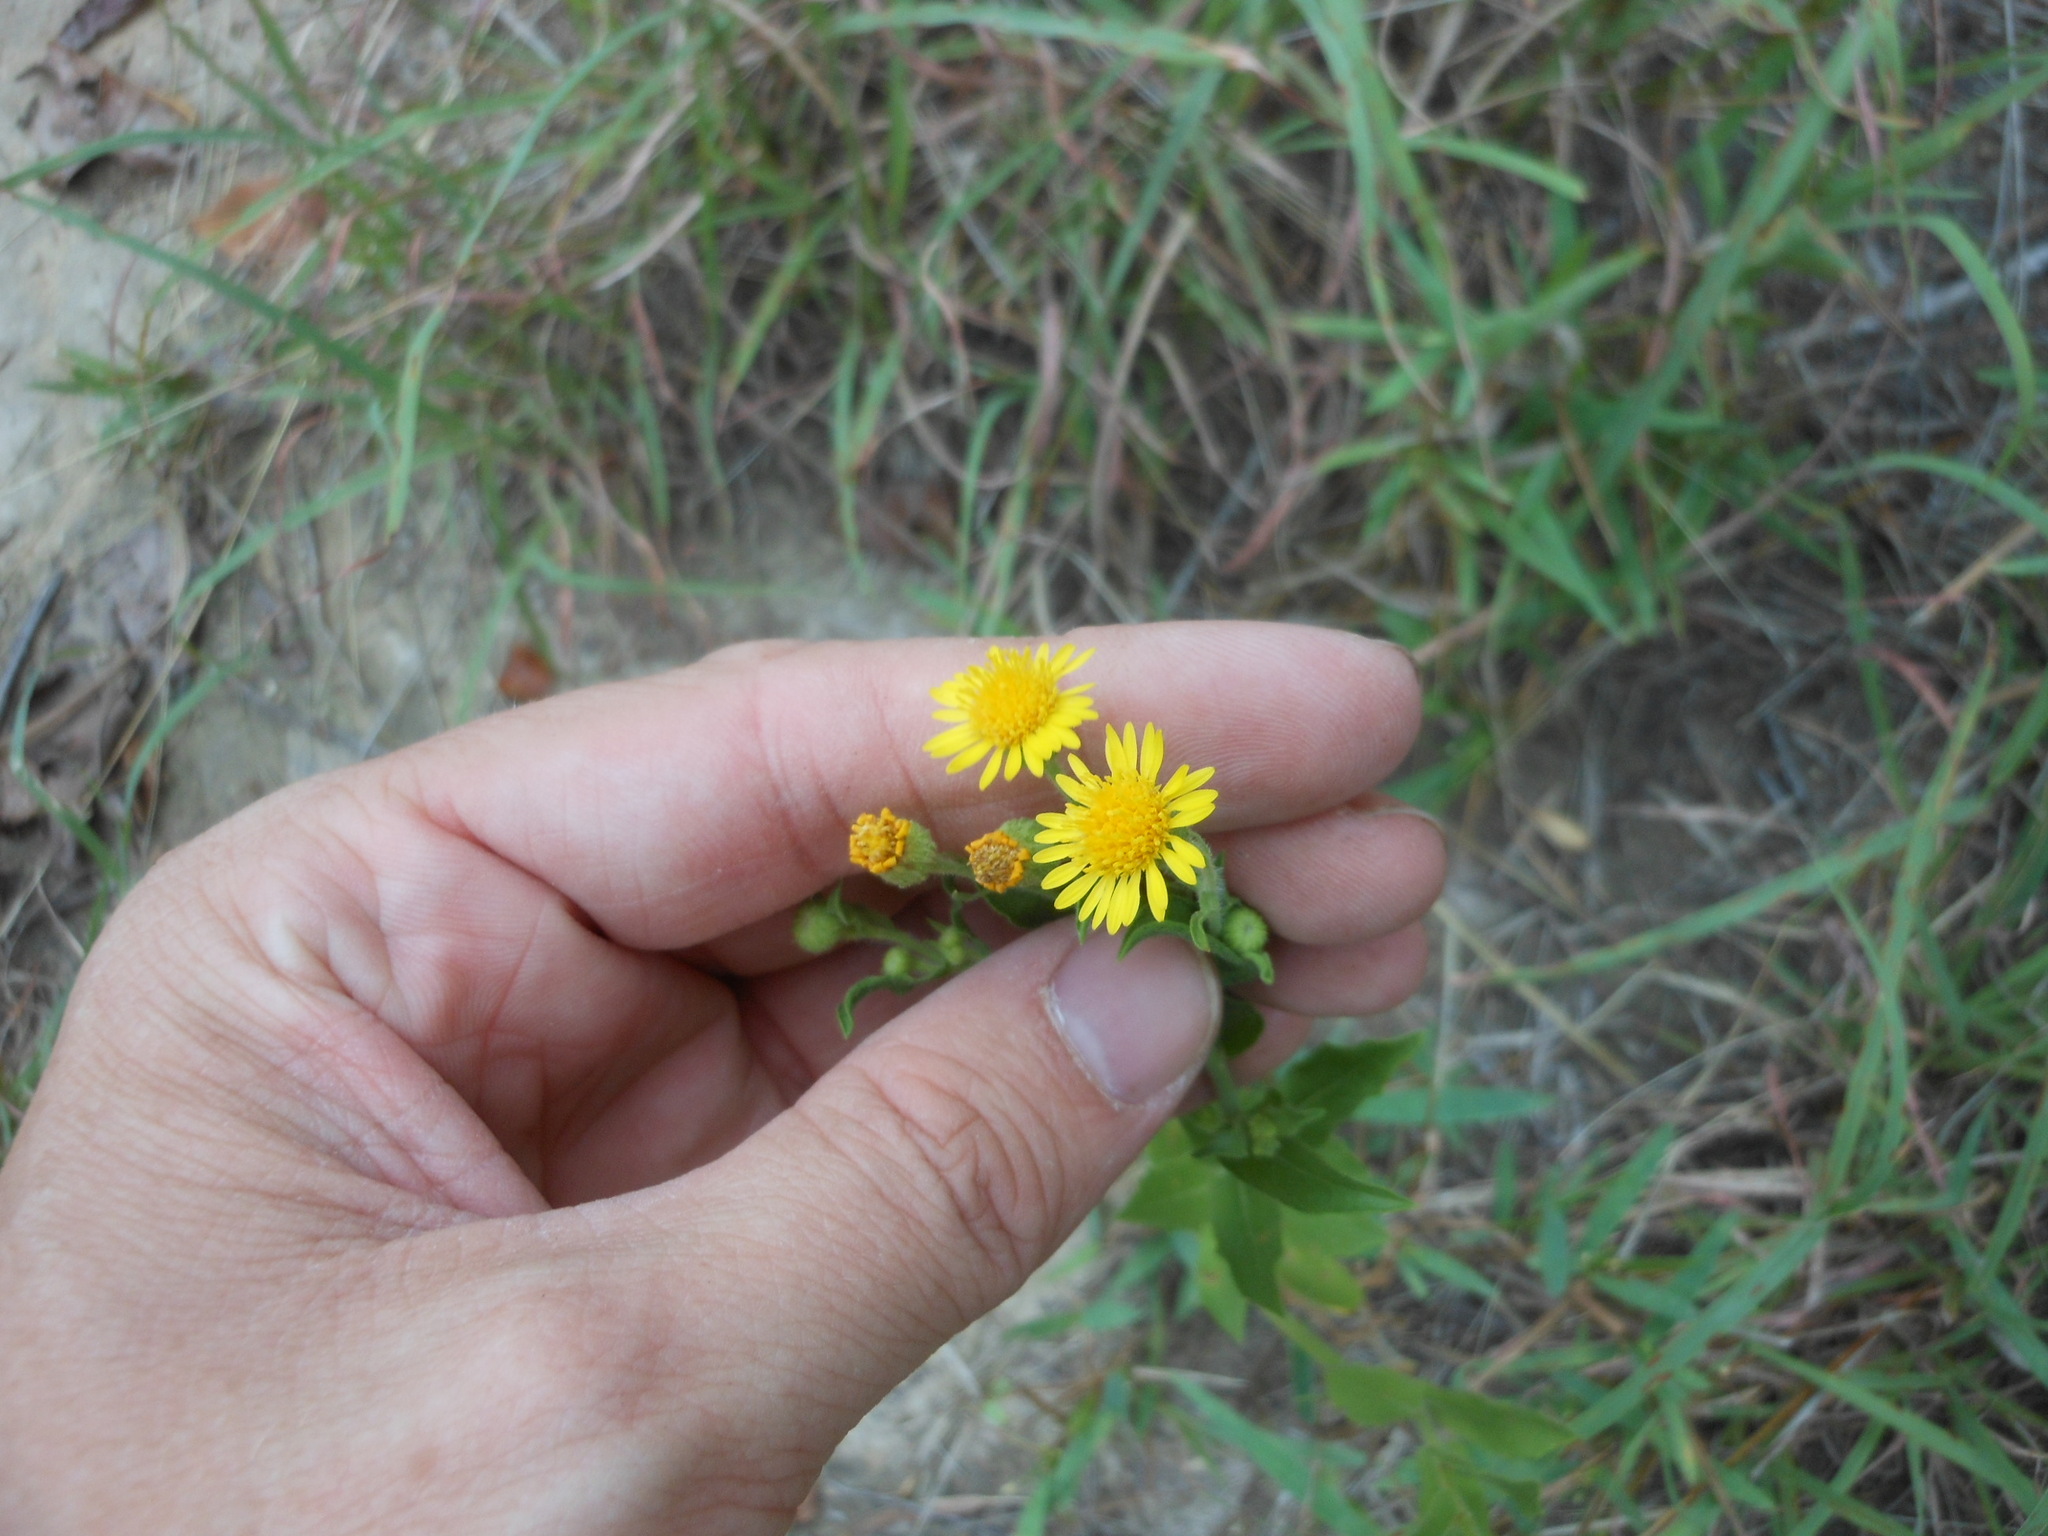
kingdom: Plantae
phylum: Tracheophyta
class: Magnoliopsida
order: Asterales
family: Asteraceae
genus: Heterotheca
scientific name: Heterotheca subaxillaris
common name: Camphorweed
